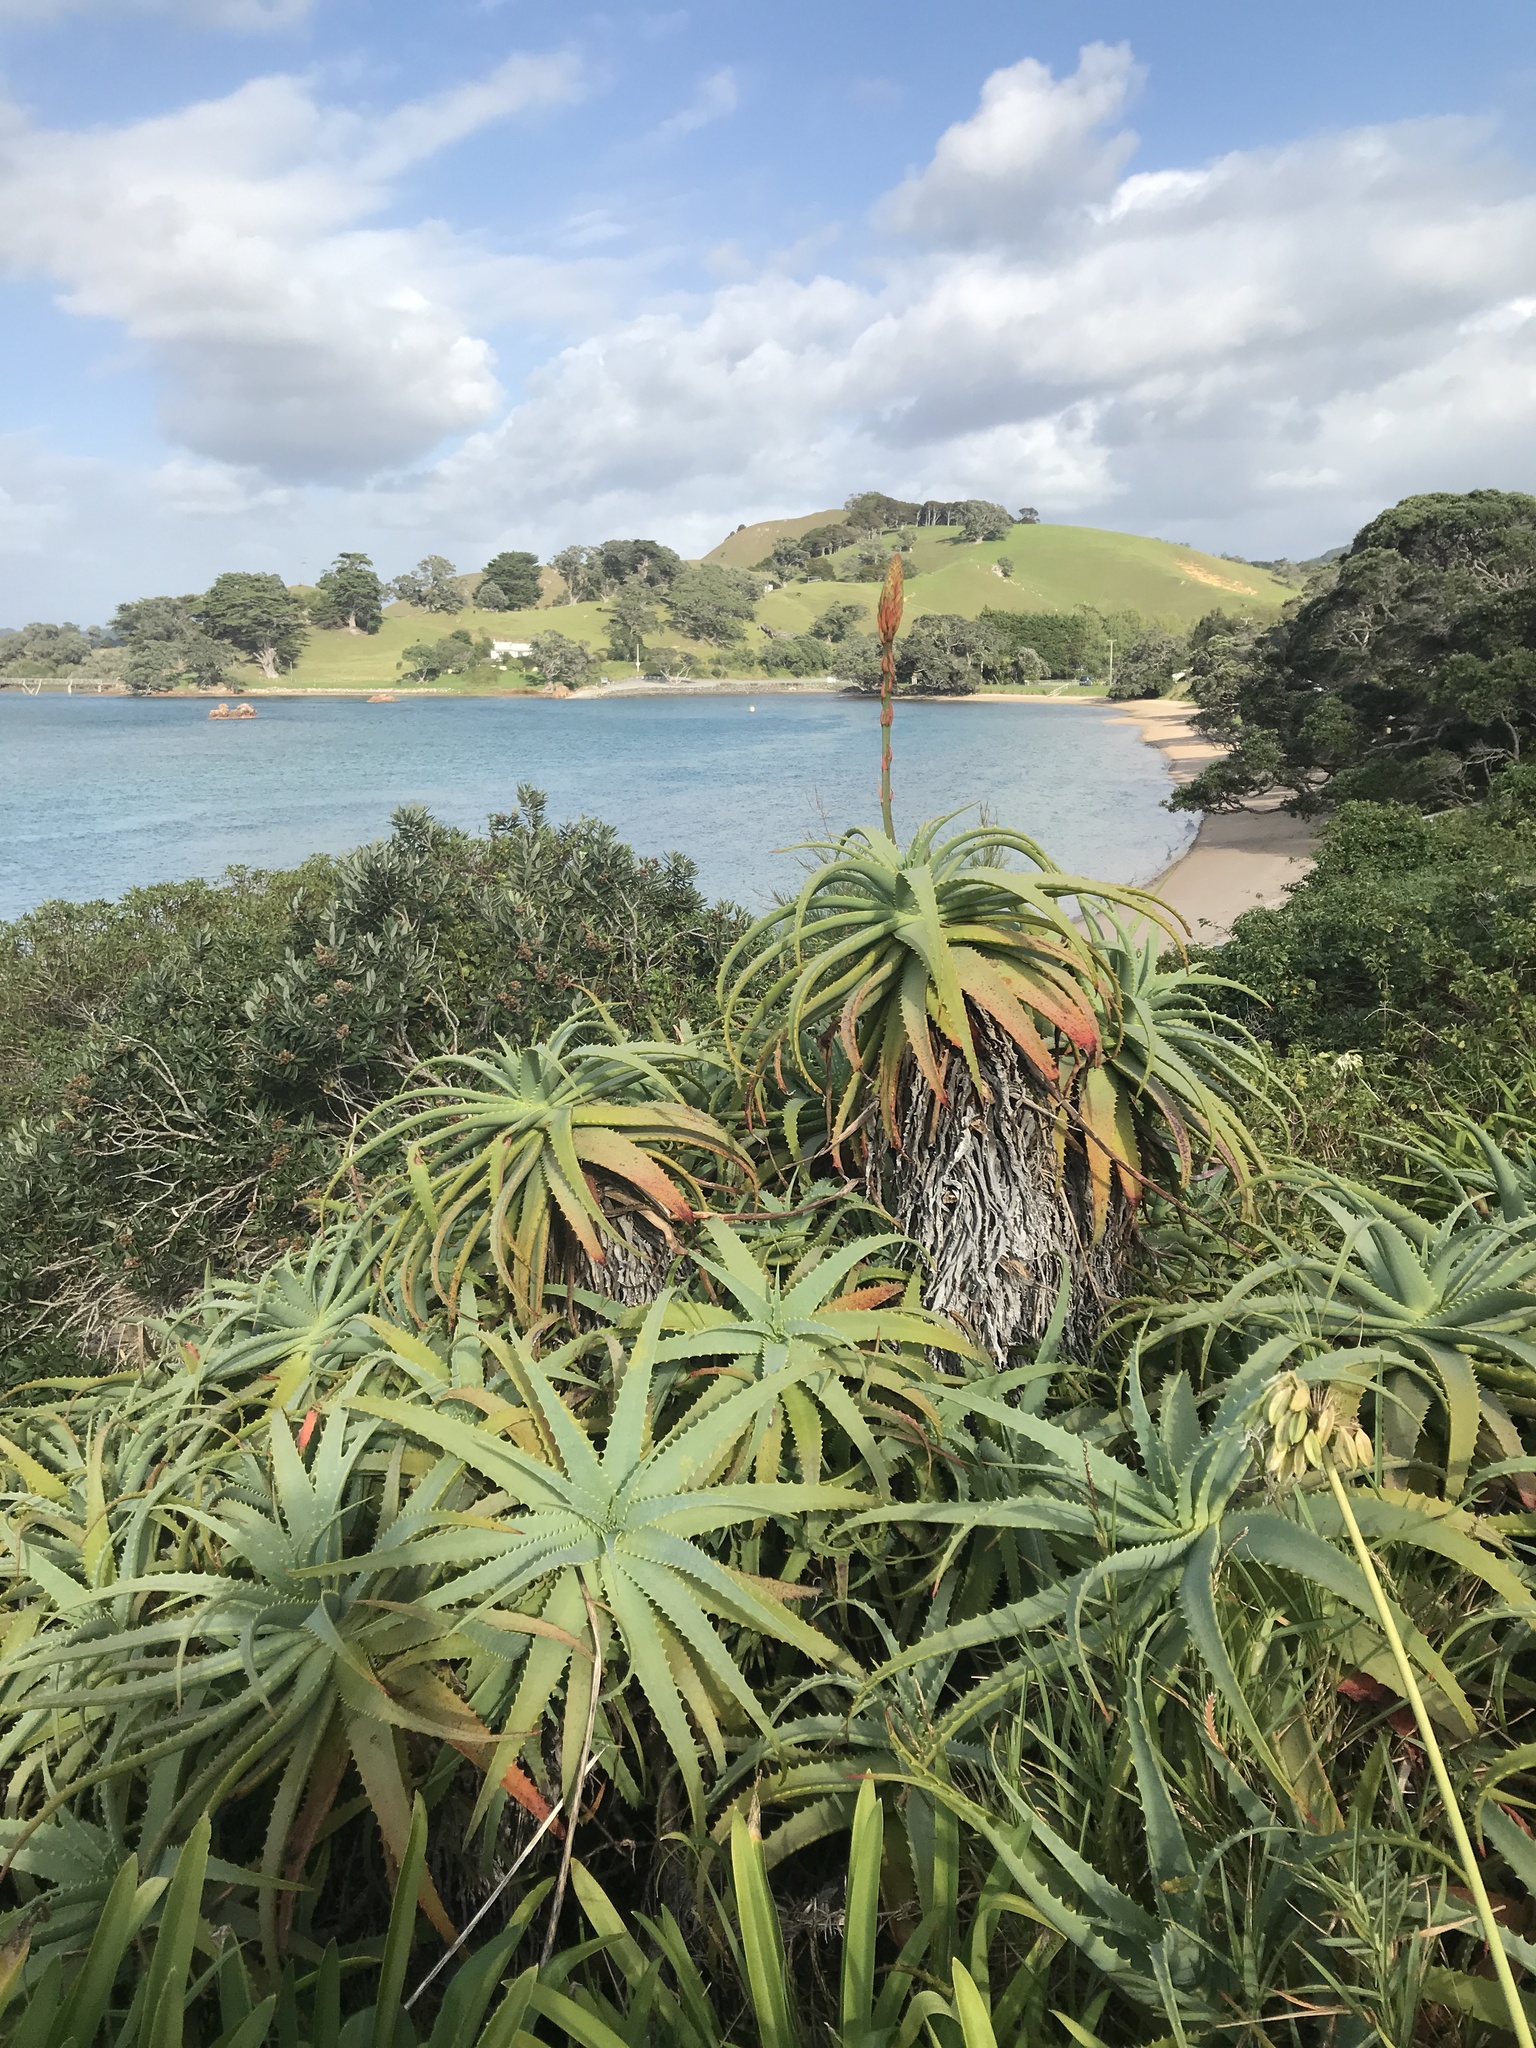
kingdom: Plantae
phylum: Tracheophyta
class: Liliopsida
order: Asparagales
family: Asphodelaceae
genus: Aloe
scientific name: Aloe arborescens
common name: Candelabra aloe
